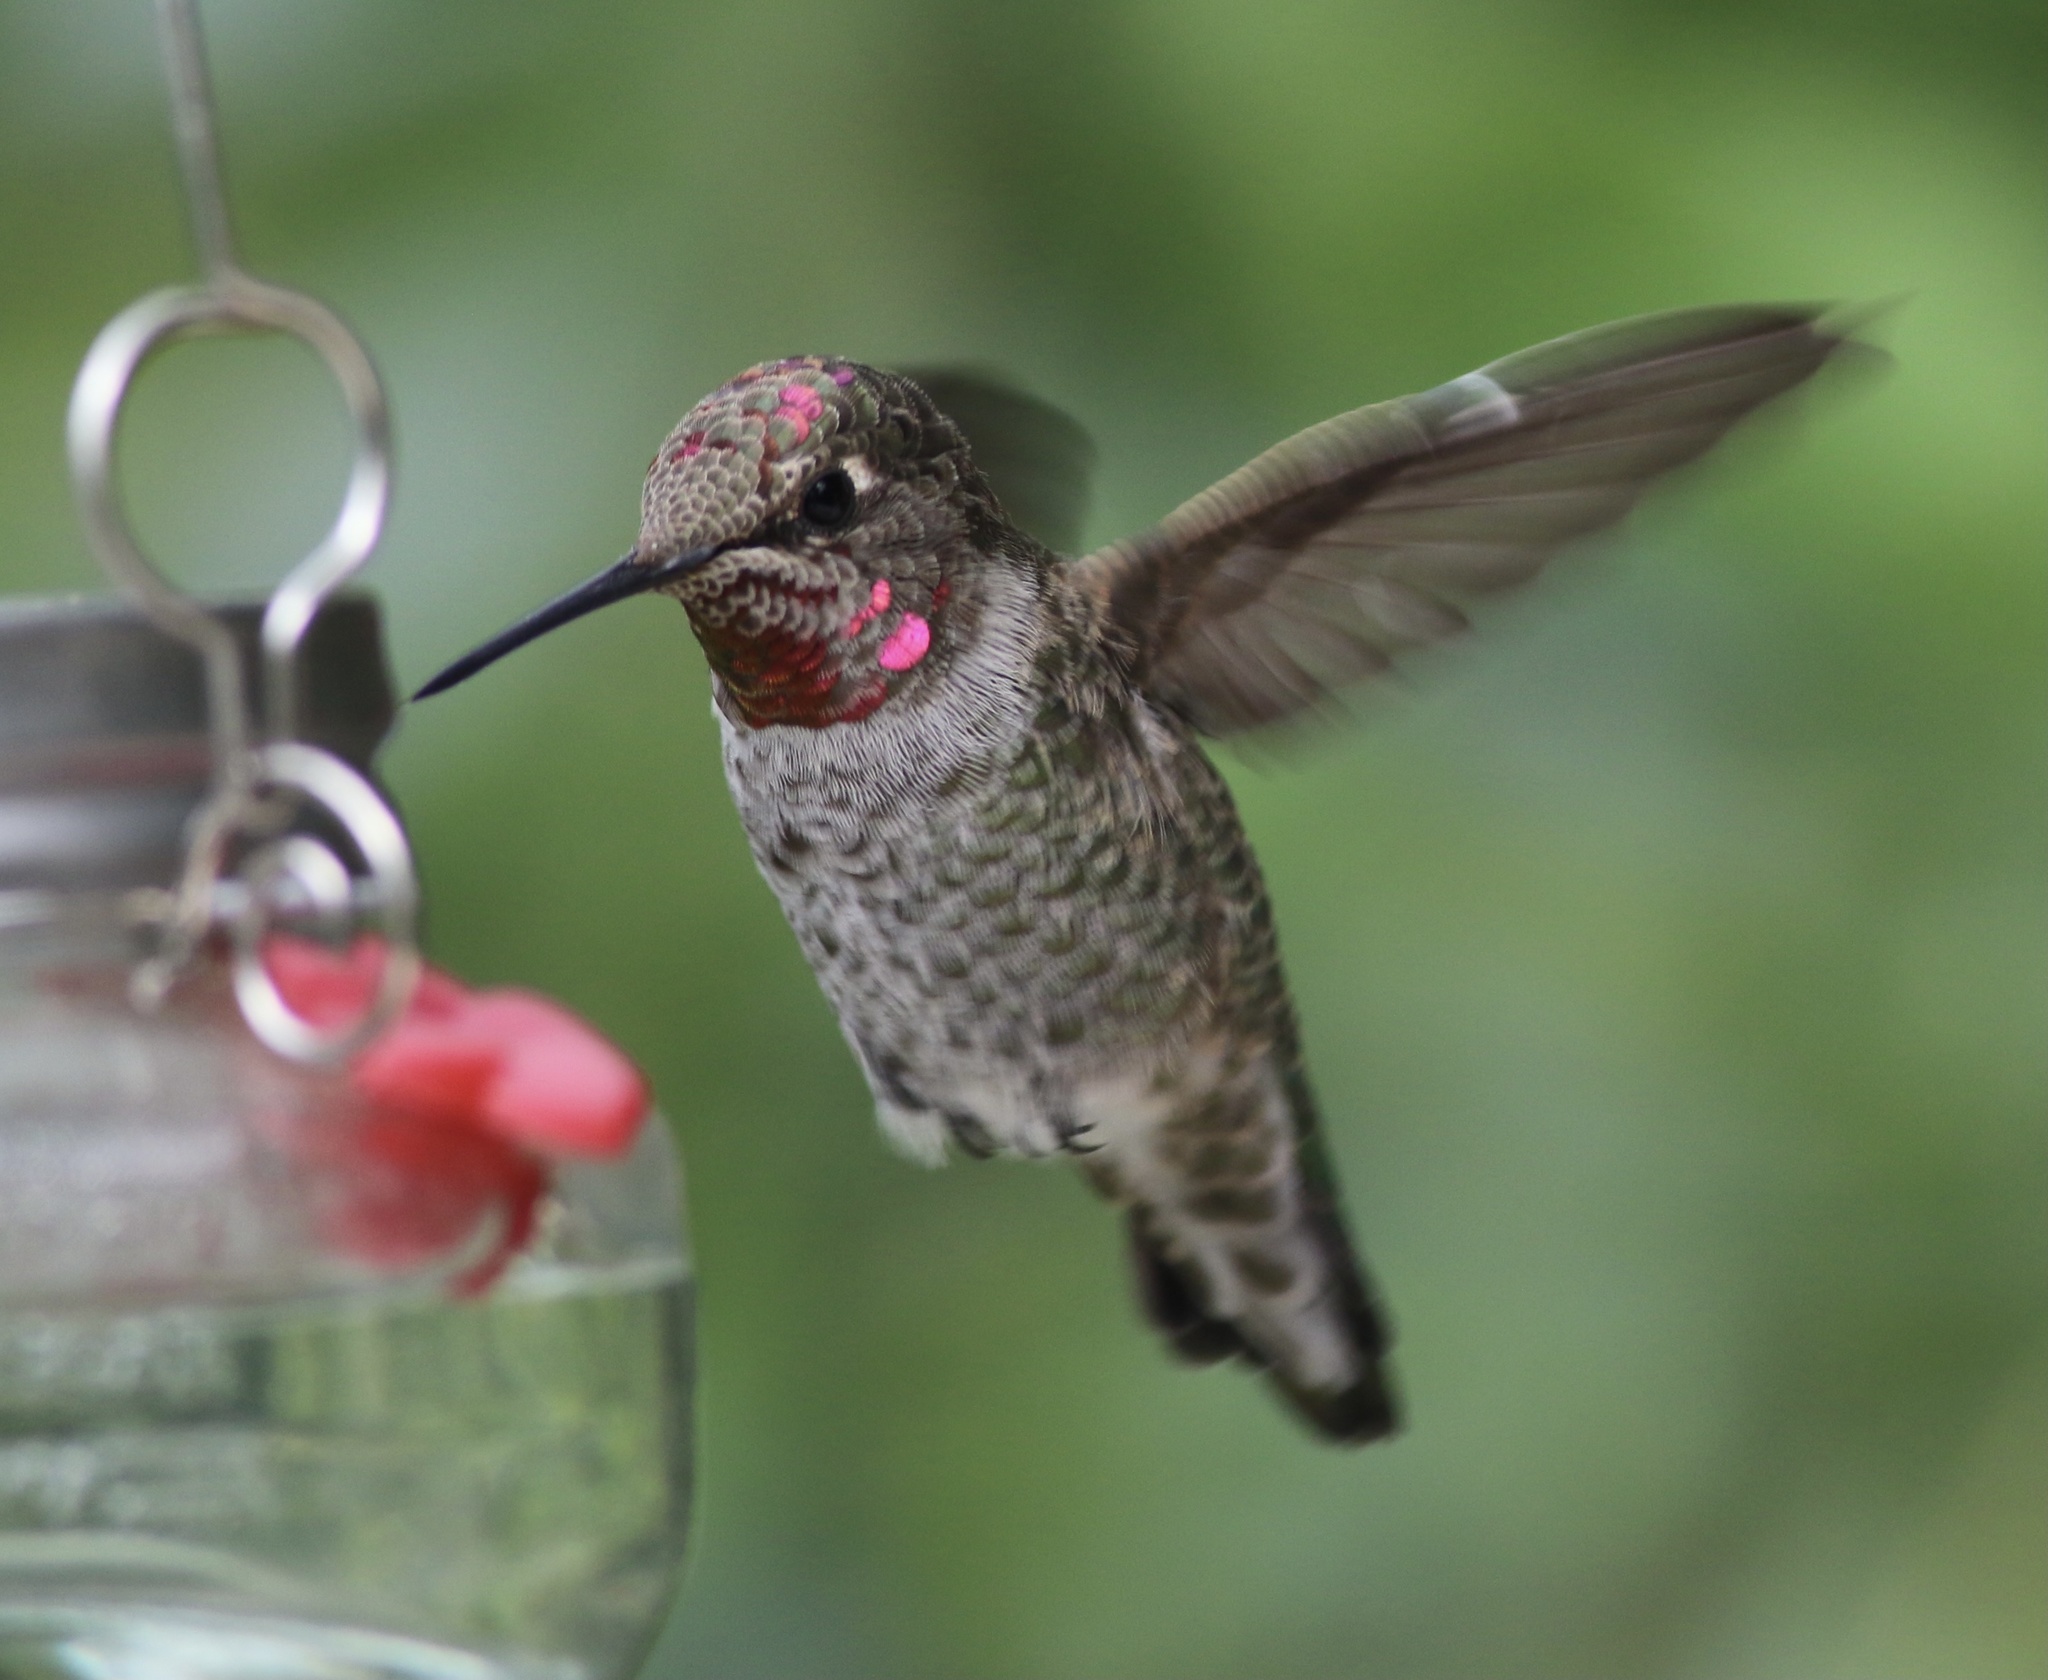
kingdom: Animalia
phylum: Chordata
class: Aves
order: Apodiformes
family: Trochilidae
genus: Calypte
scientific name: Calypte anna
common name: Anna's hummingbird
